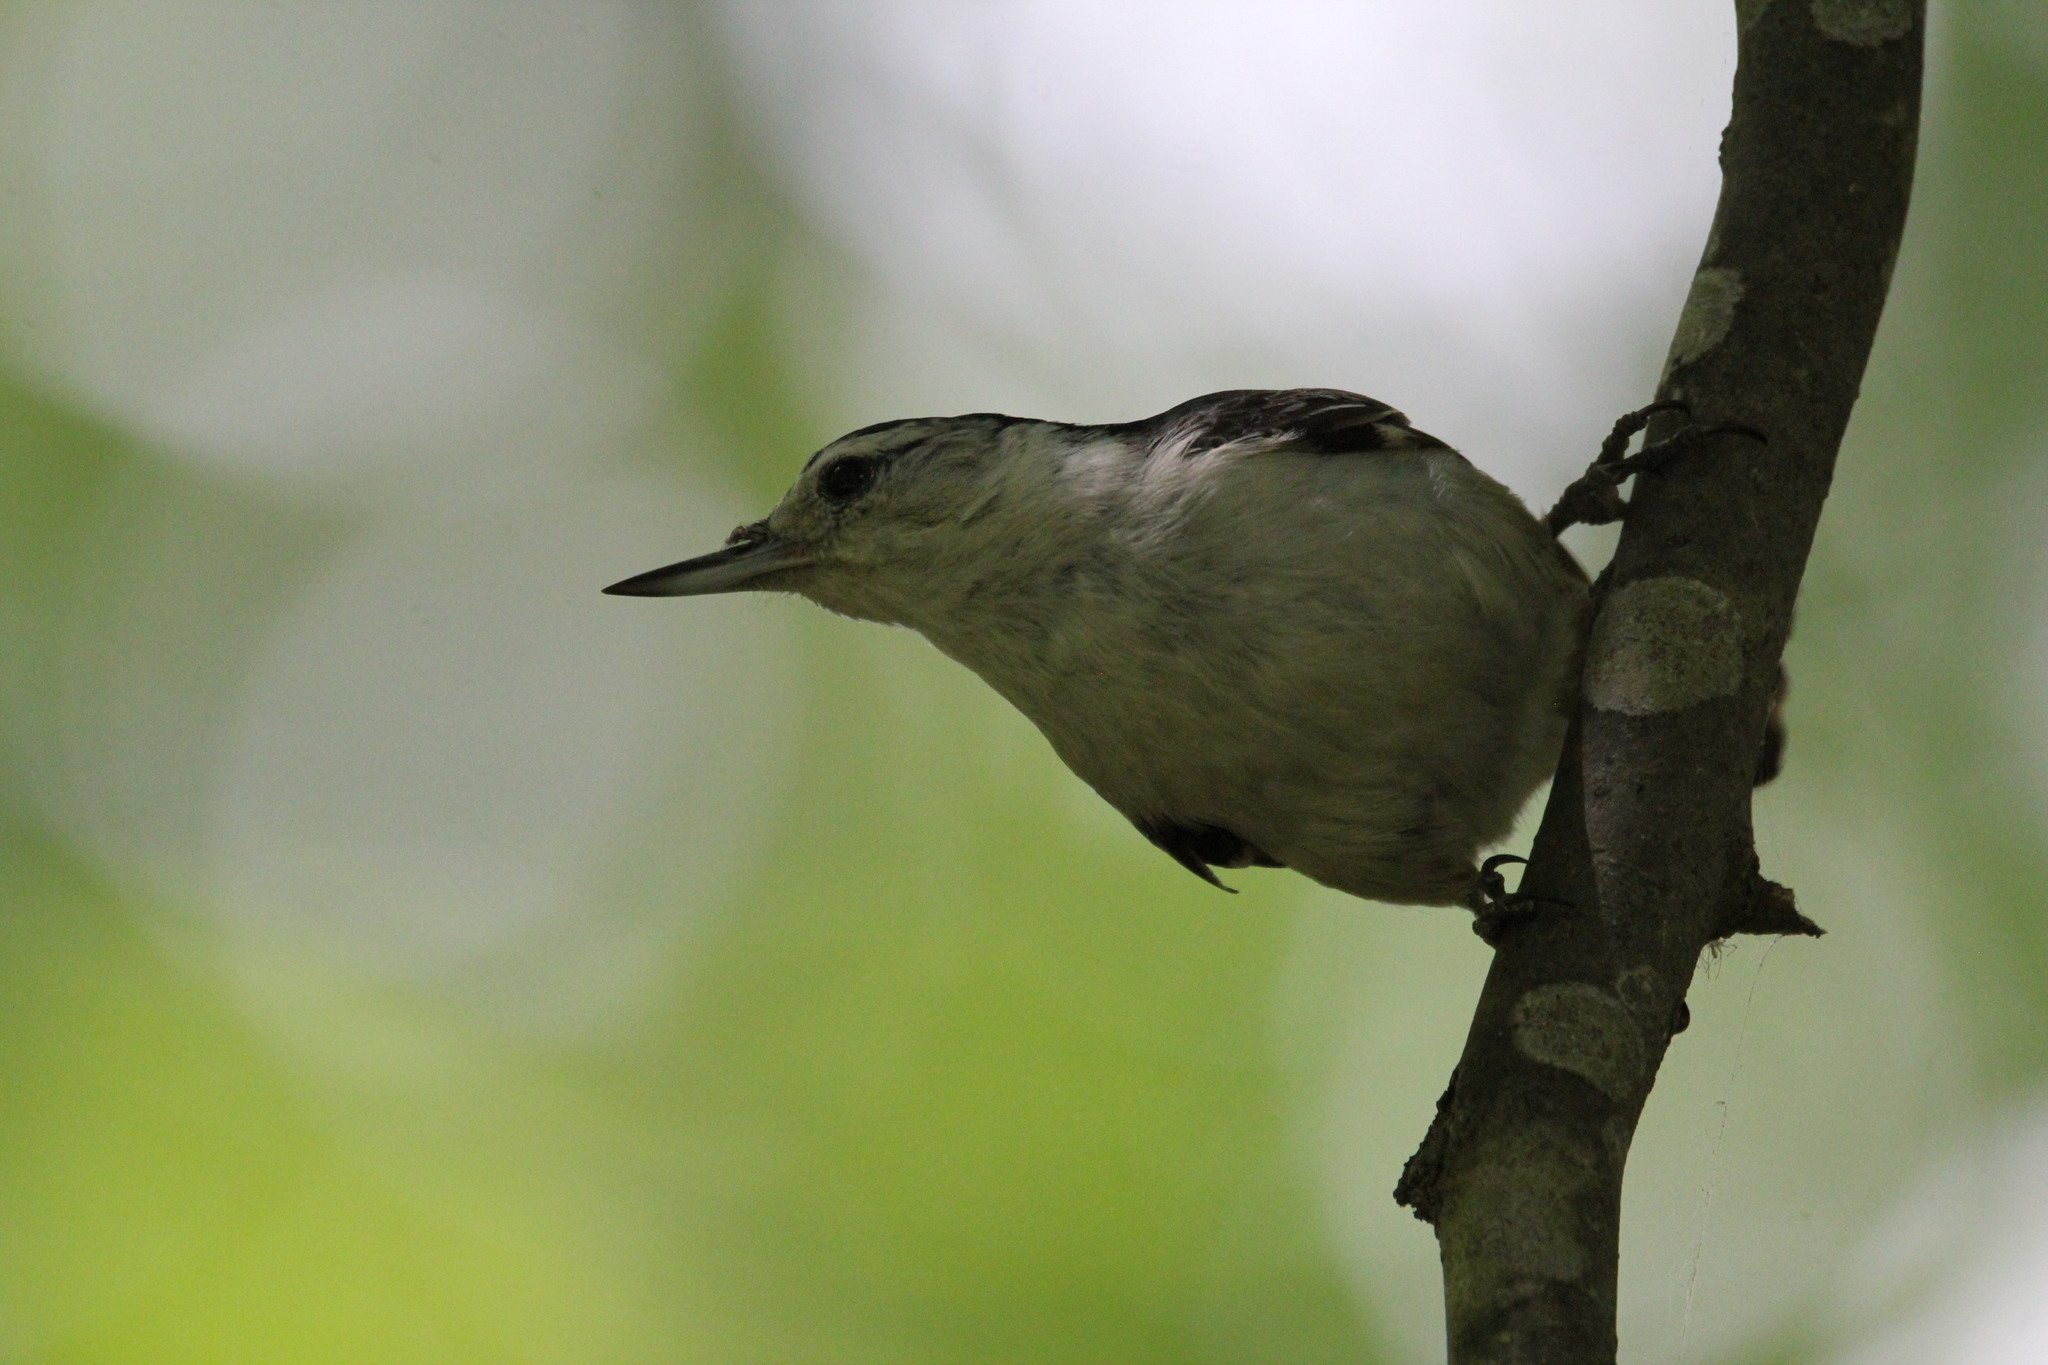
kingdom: Animalia
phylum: Chordata
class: Aves
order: Passeriformes
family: Sittidae
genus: Sitta
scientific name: Sitta carolinensis
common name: White-breasted nuthatch
